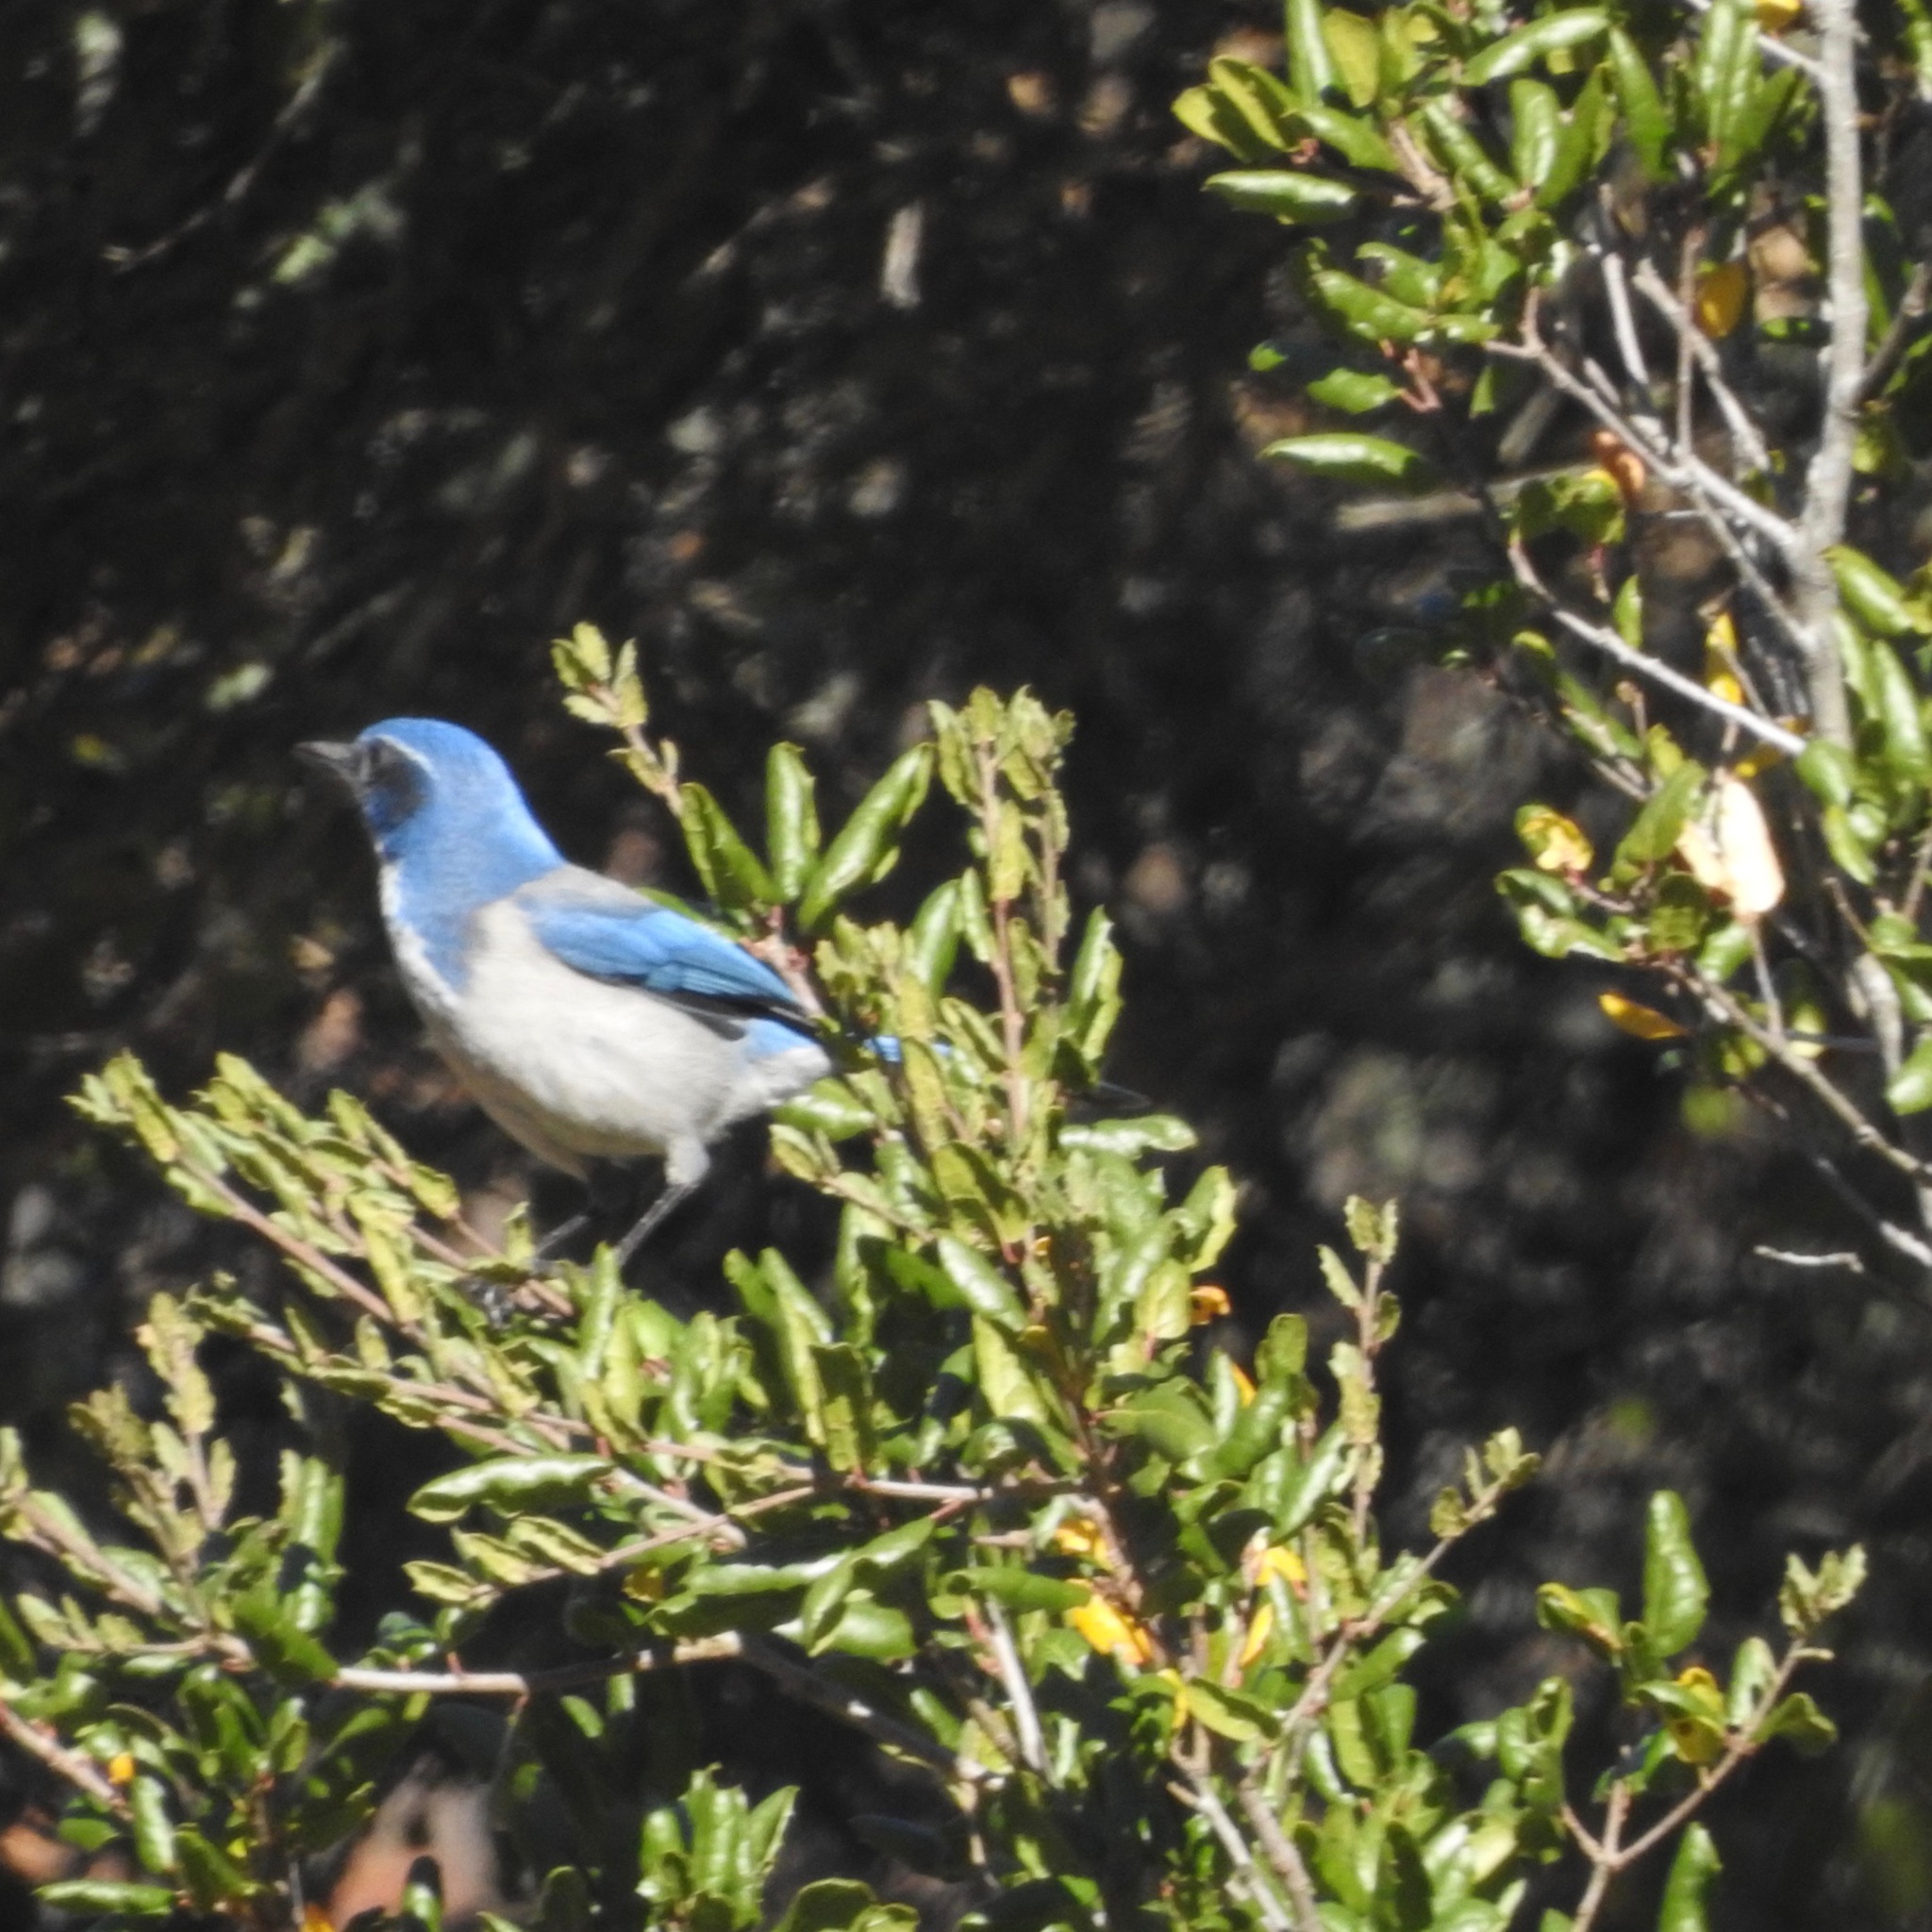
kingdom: Animalia
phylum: Chordata
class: Aves
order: Passeriformes
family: Corvidae
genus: Aphelocoma
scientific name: Aphelocoma californica
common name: California scrub-jay
